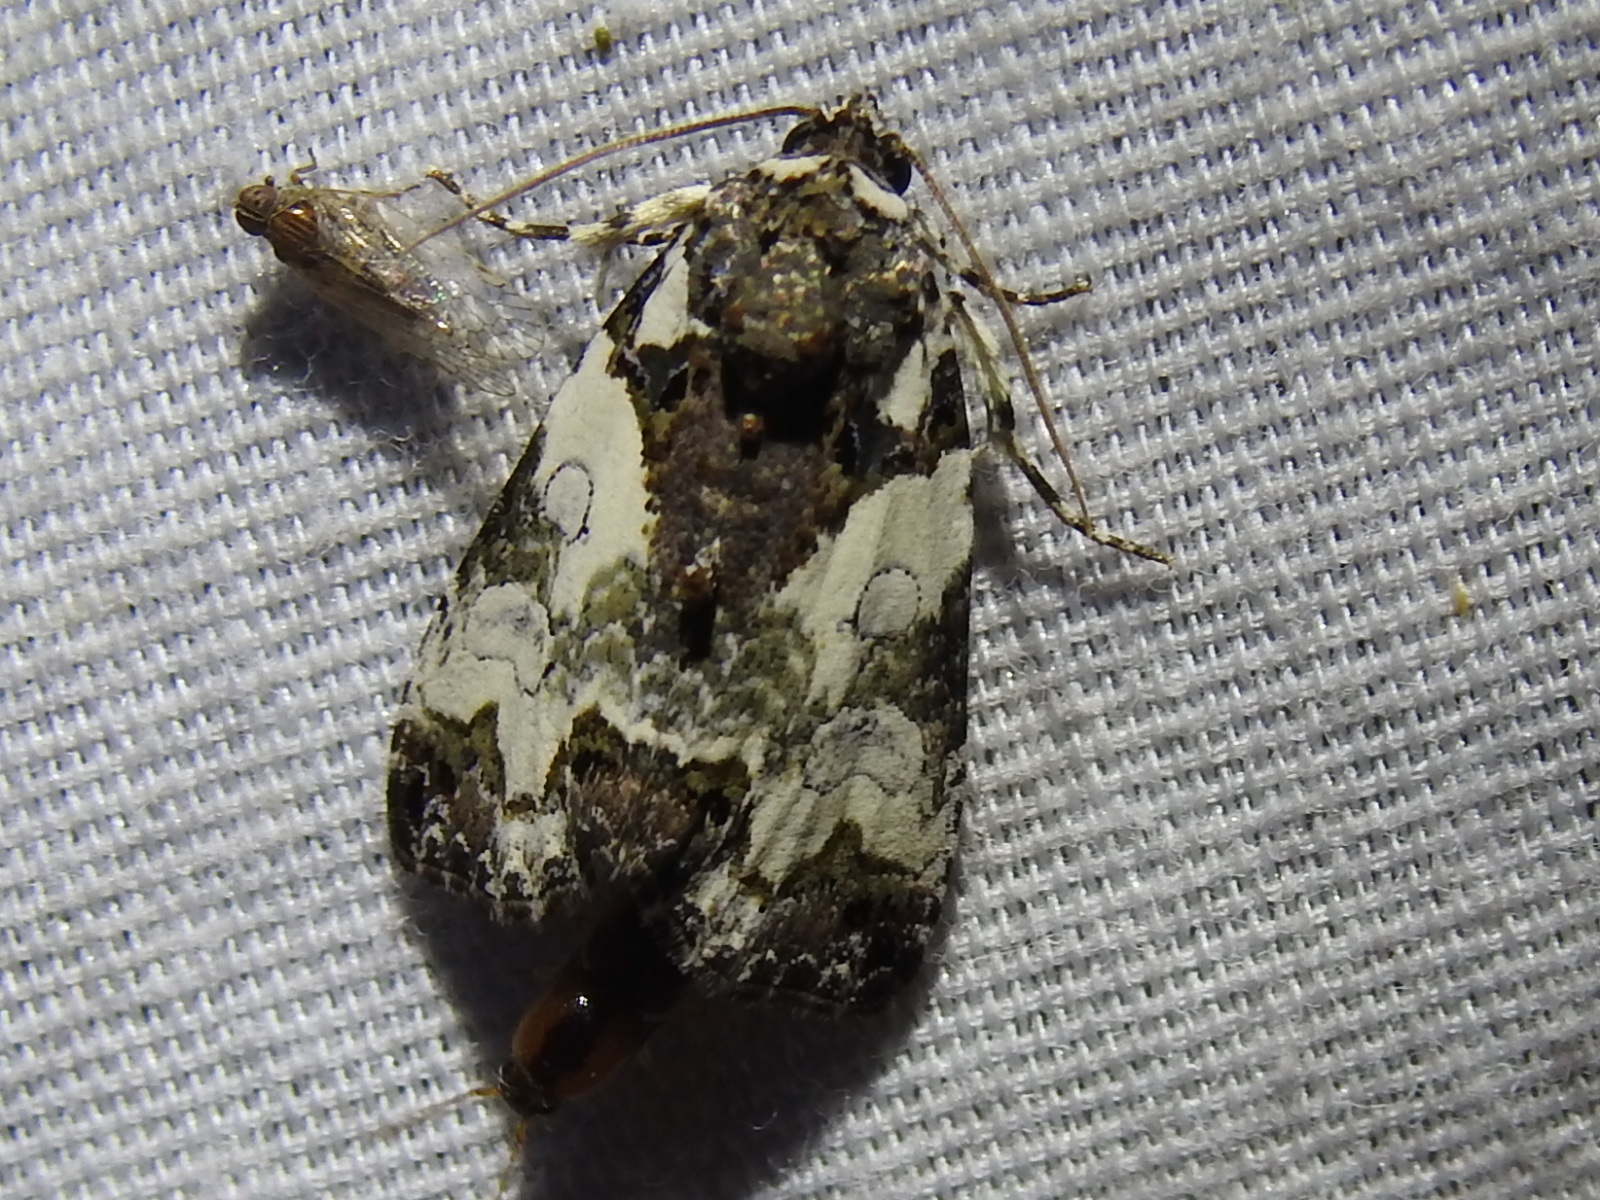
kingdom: Animalia
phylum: Arthropoda
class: Insecta
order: Lepidoptera
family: Noctuidae
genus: Cerma
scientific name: Cerma cerintha
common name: Tufted bird-dropping moth
